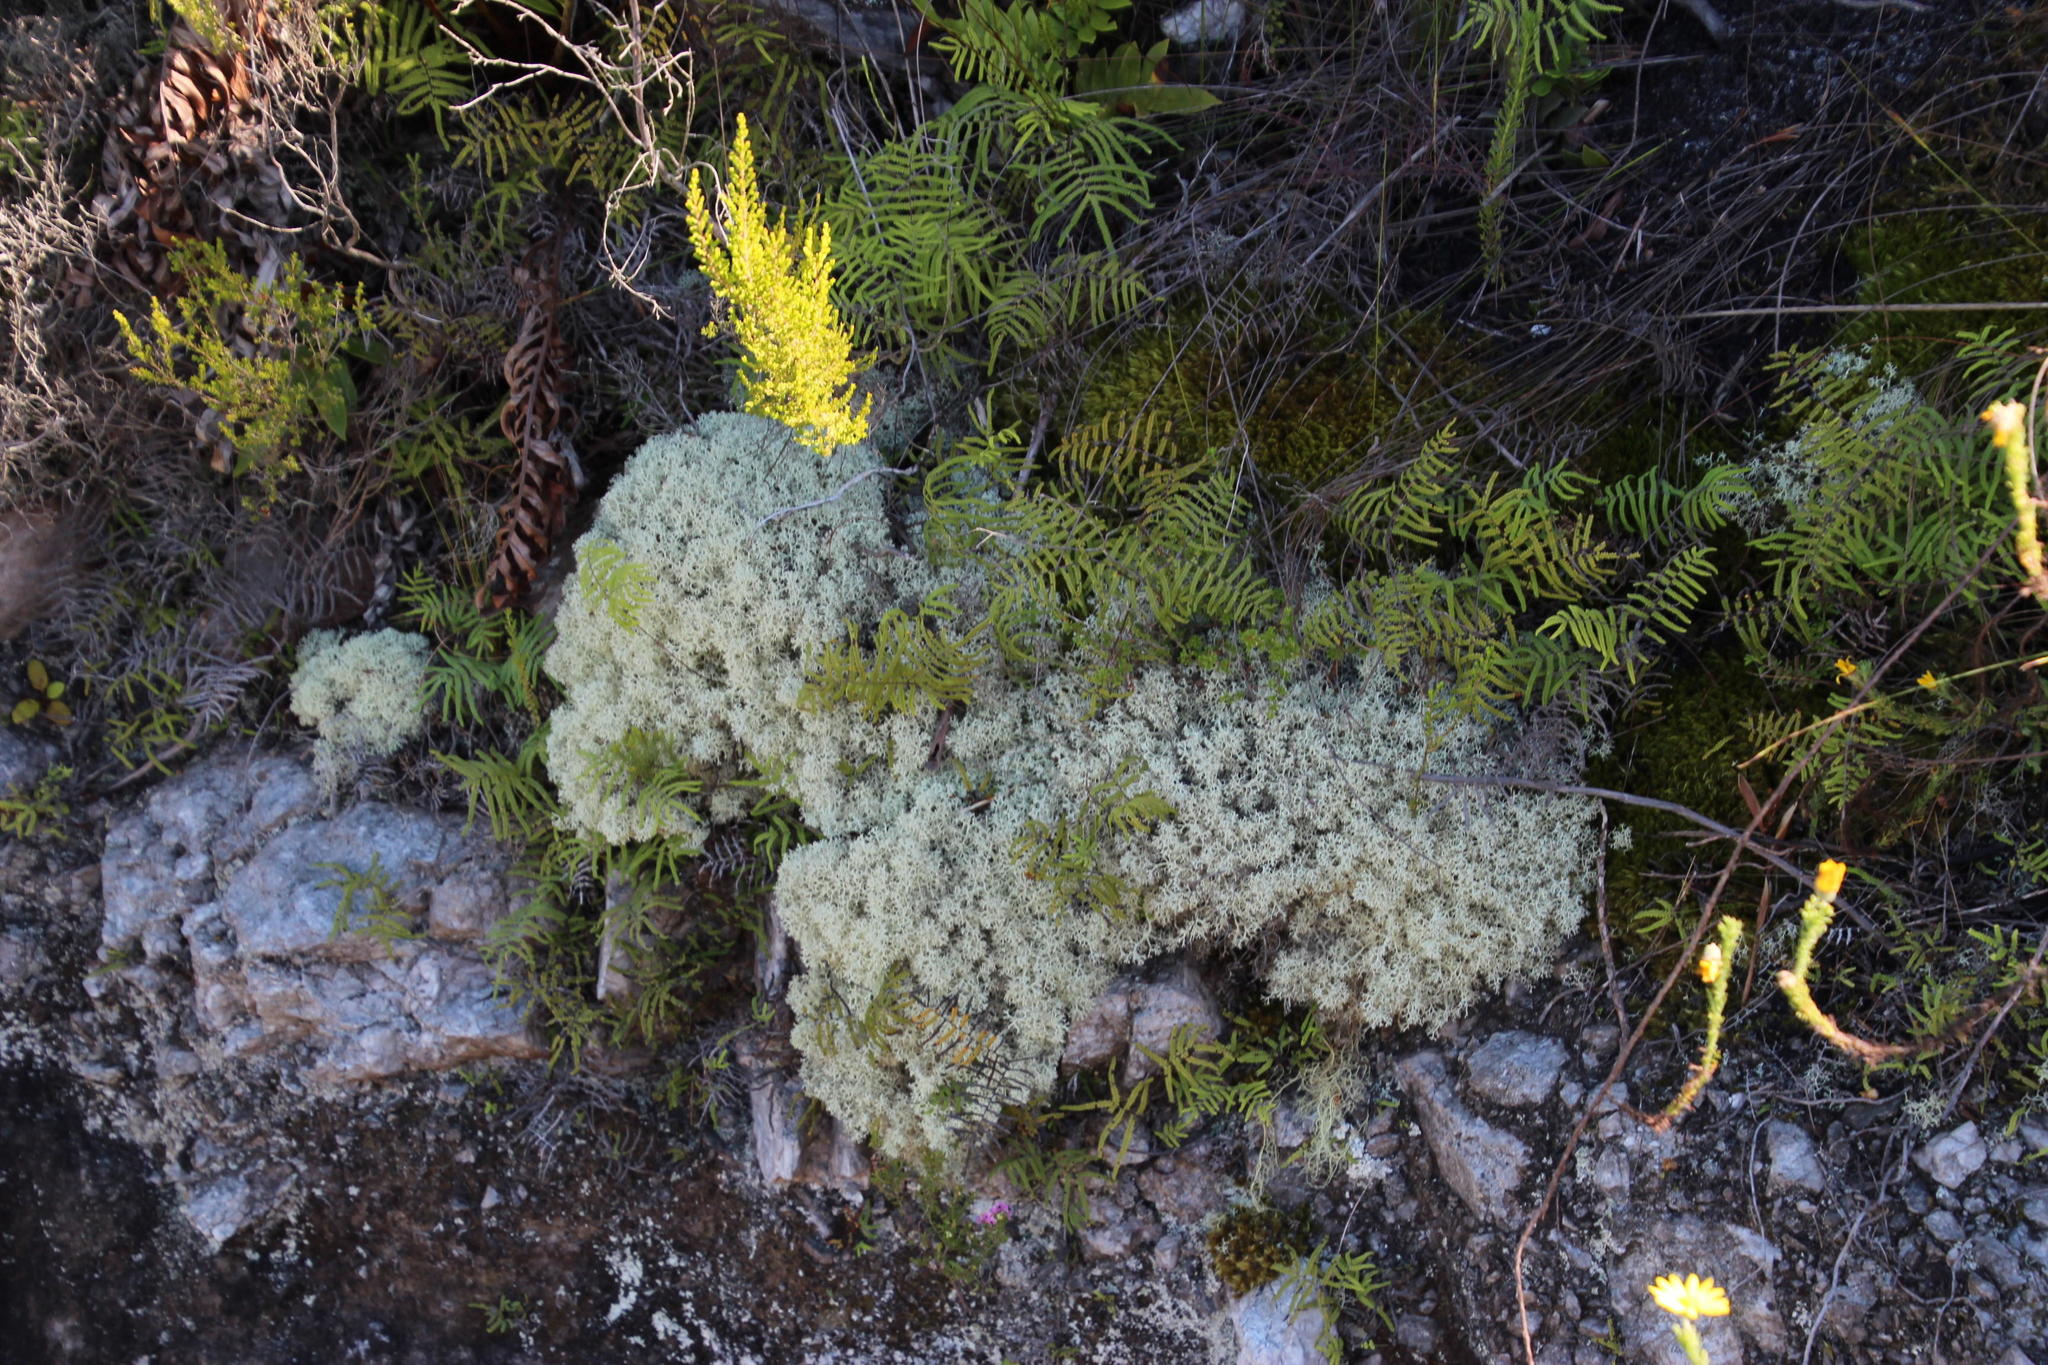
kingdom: Fungi
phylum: Ascomycota
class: Lecanoromycetes
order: Lecanorales
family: Cladoniaceae
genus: Cladonia
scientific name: Cladonia confusa
